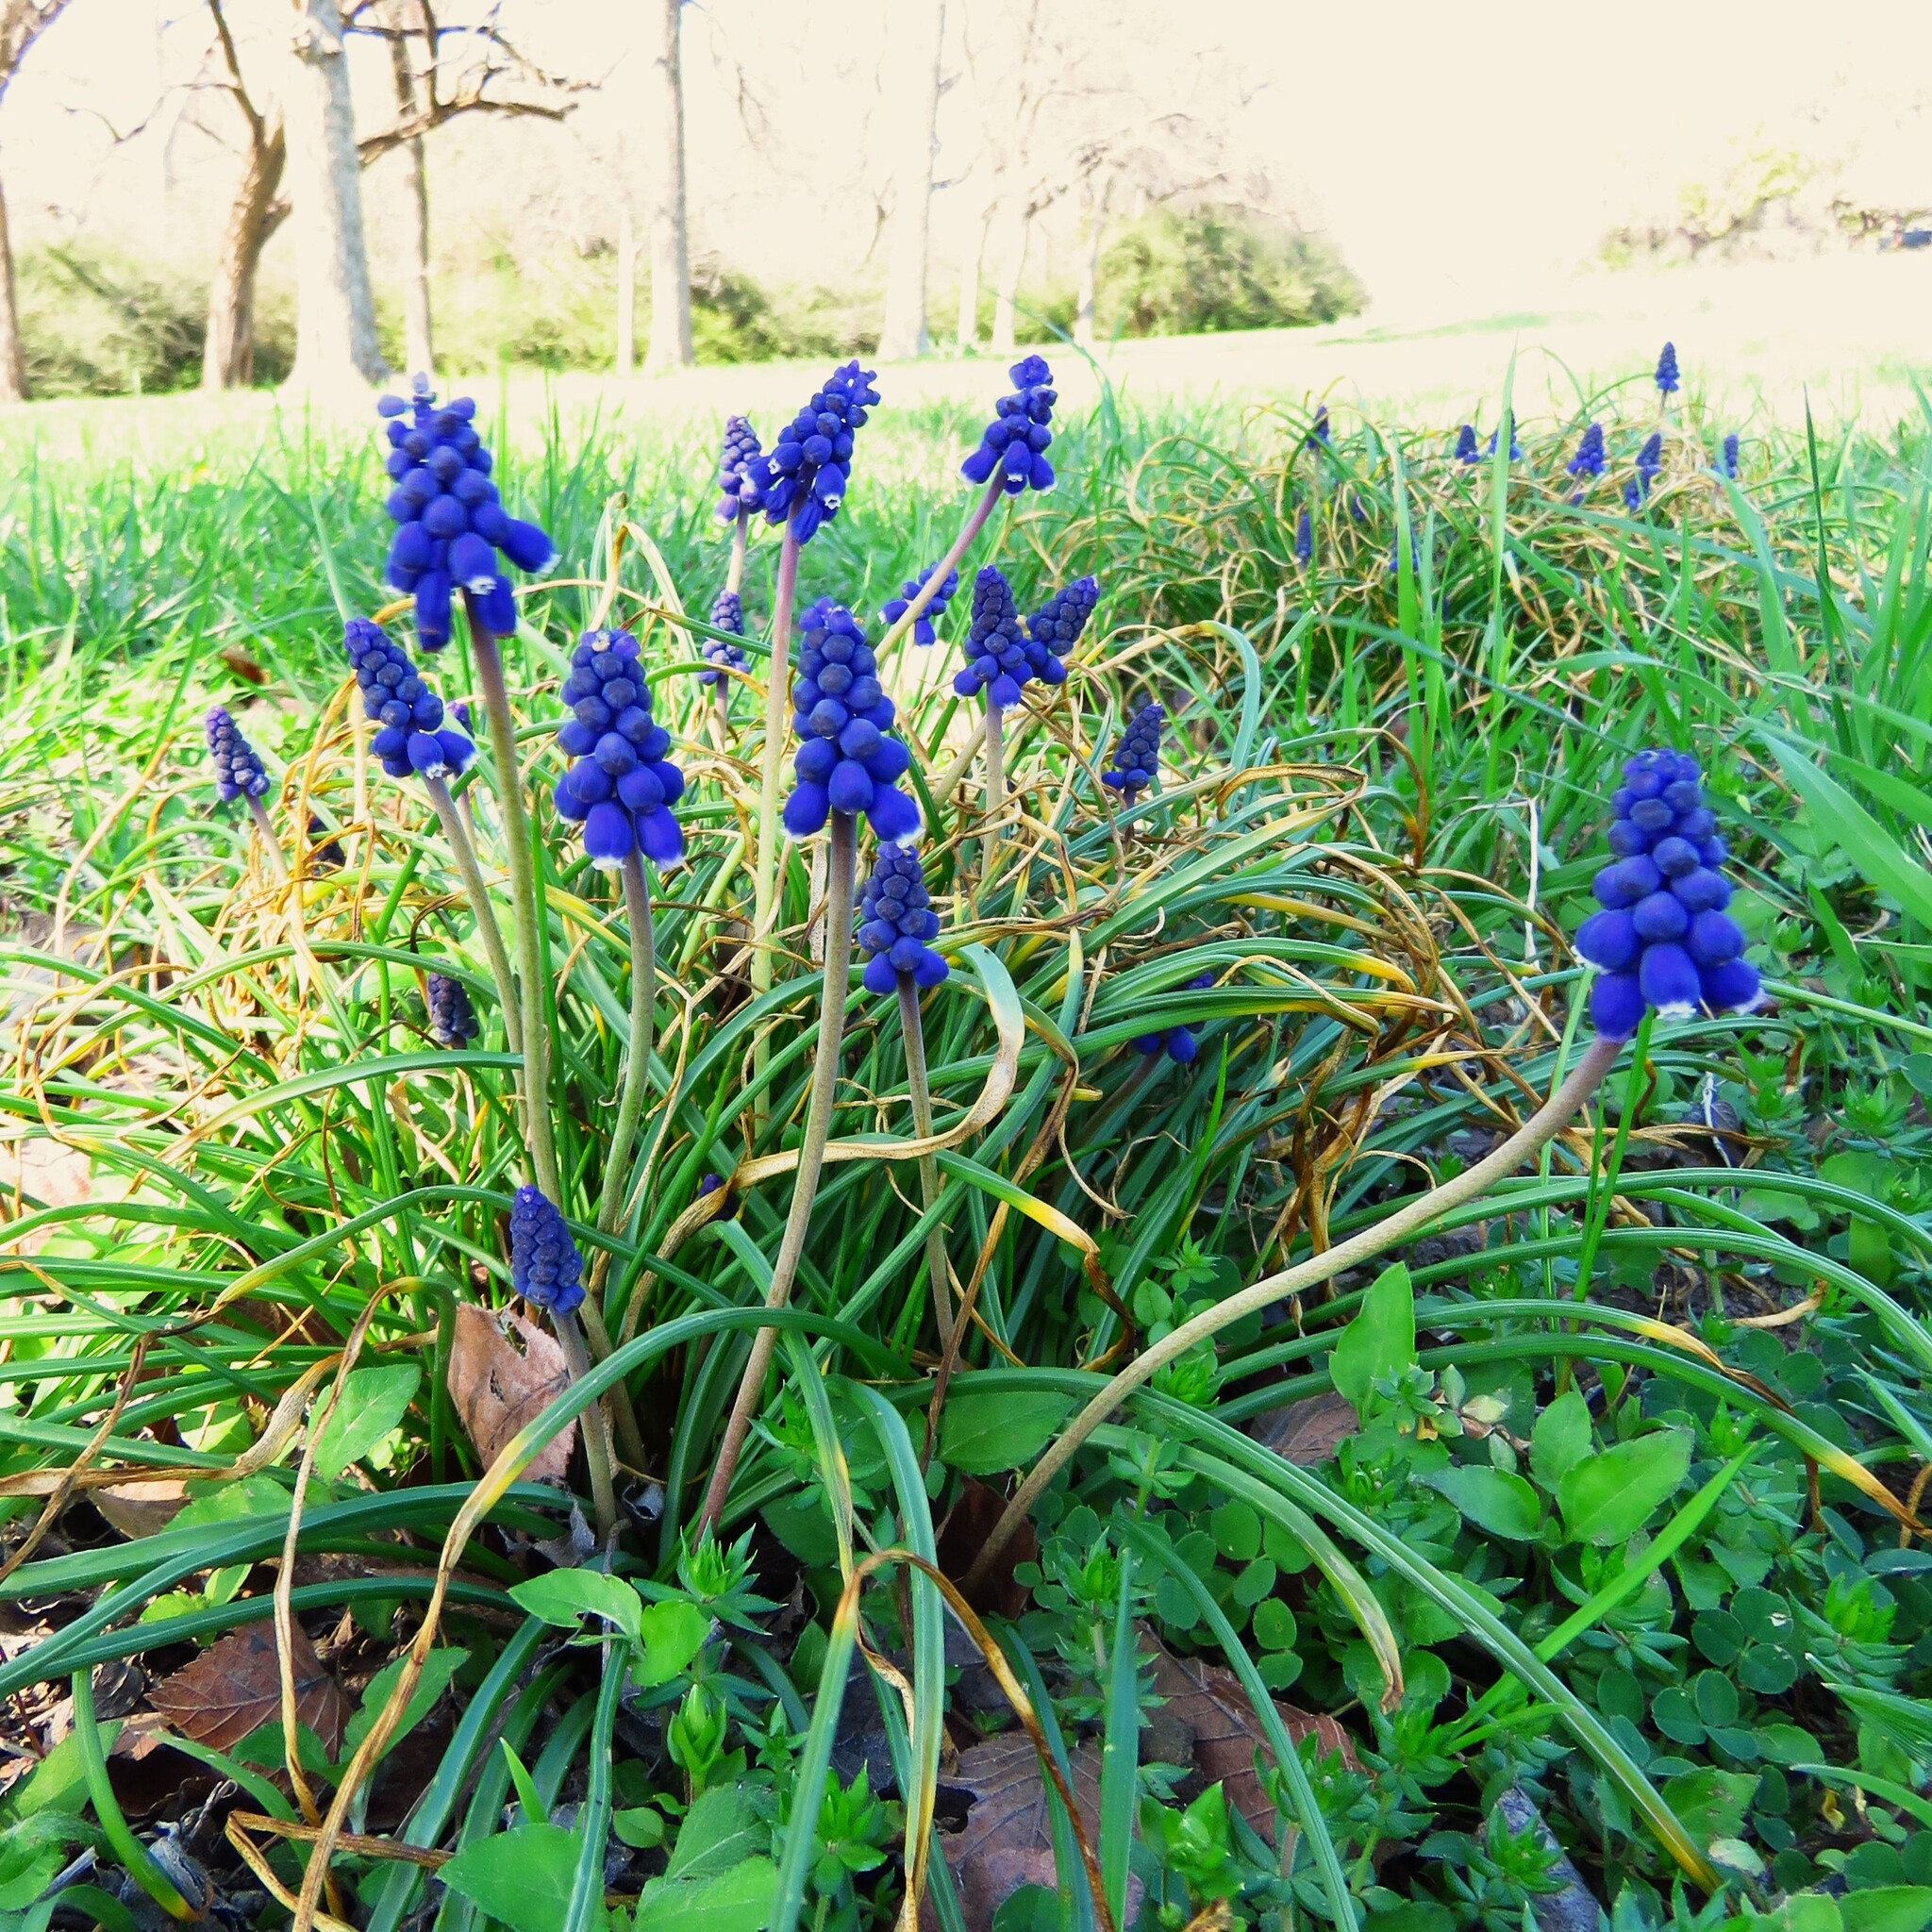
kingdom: Plantae
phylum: Tracheophyta
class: Liliopsida
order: Asparagales
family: Asparagaceae
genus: Muscari
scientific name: Muscari neglectum
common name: Grape-hyacinth
